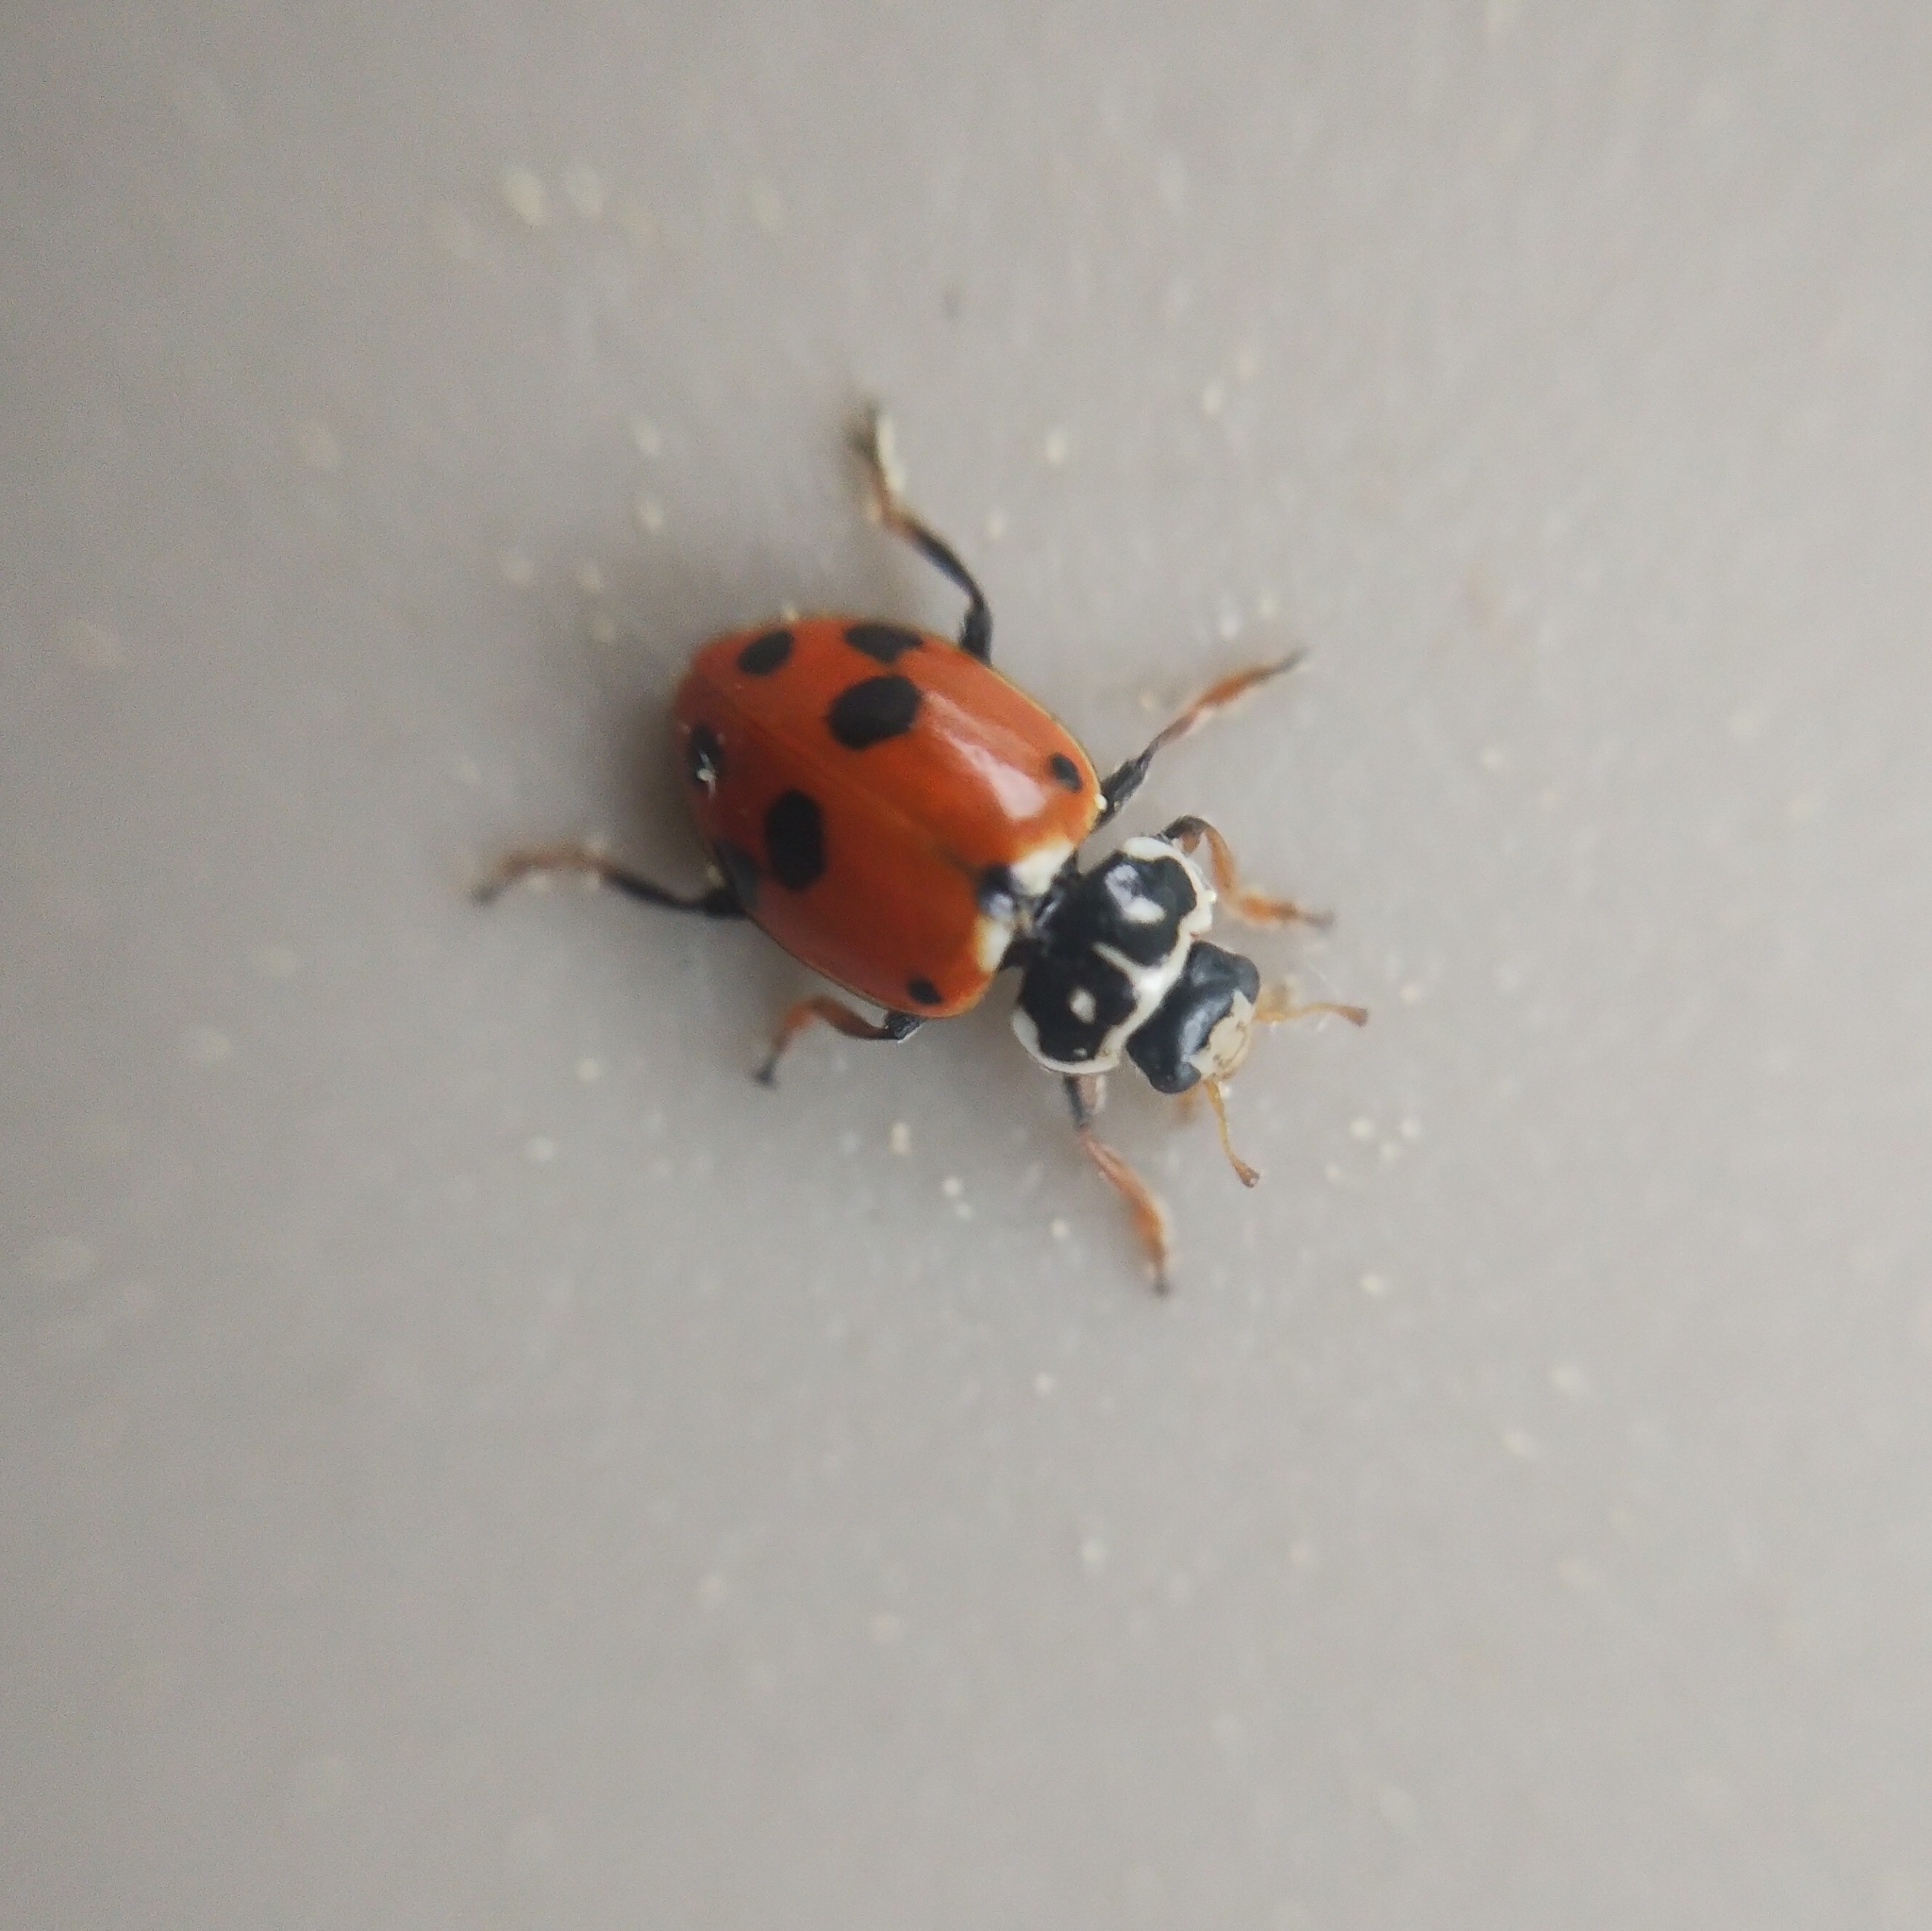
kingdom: Animalia
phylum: Arthropoda
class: Insecta
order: Coleoptera
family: Coccinellidae
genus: Hippodamia
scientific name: Hippodamia variegata
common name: Ladybird beetle
